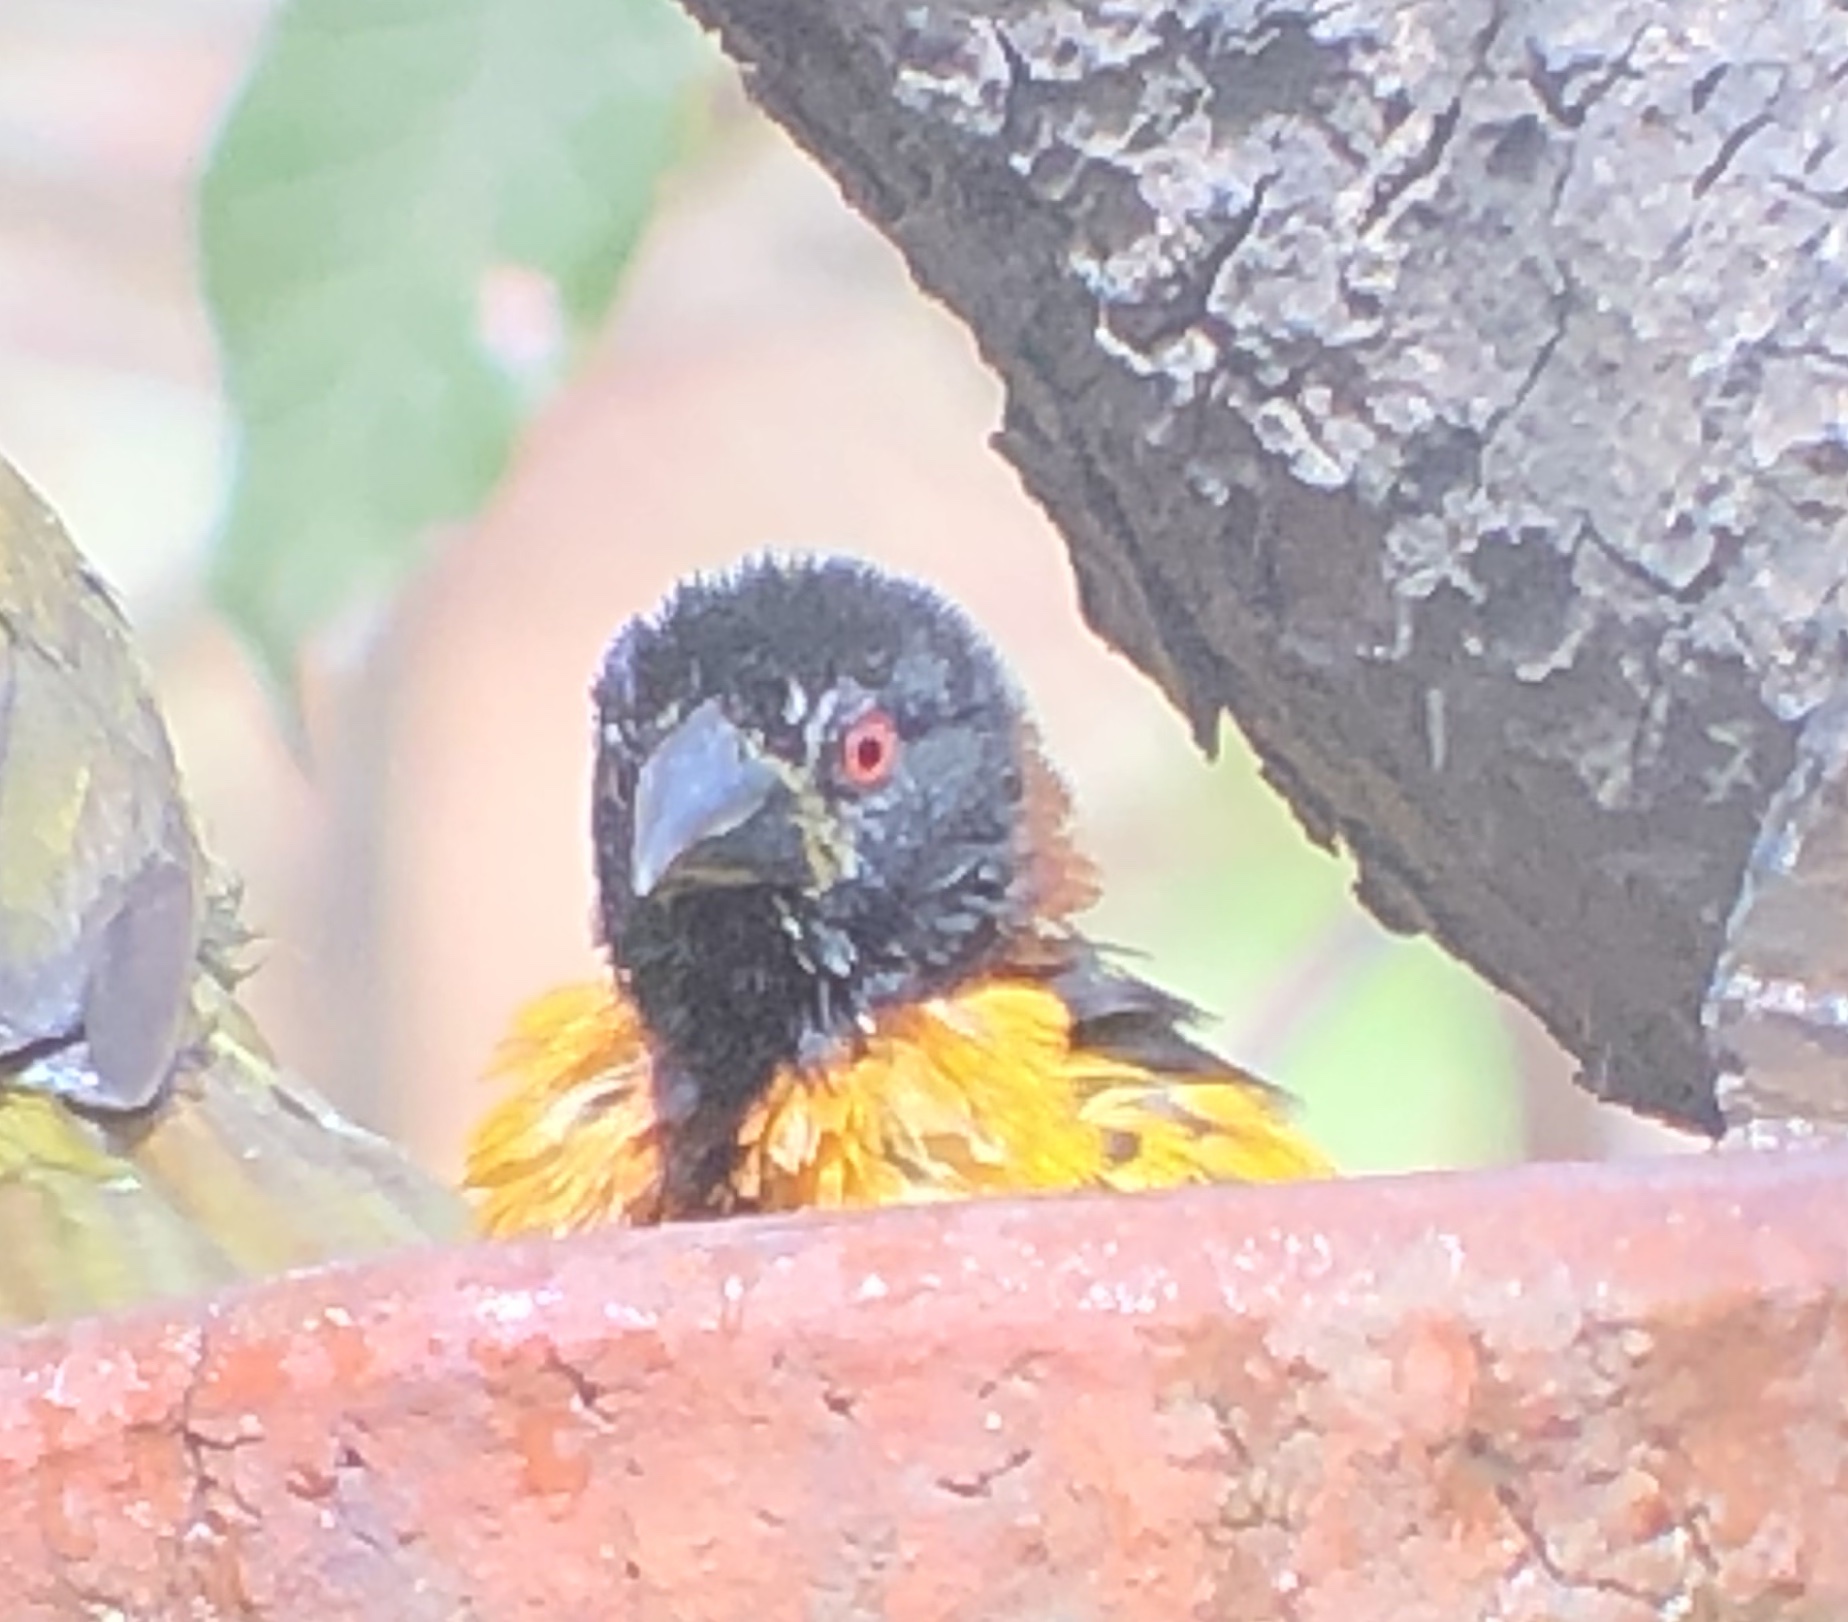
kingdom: Animalia
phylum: Chordata
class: Aves
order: Passeriformes
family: Ploceidae
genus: Ploceus
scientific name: Ploceus cucullatus
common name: Village weaver
